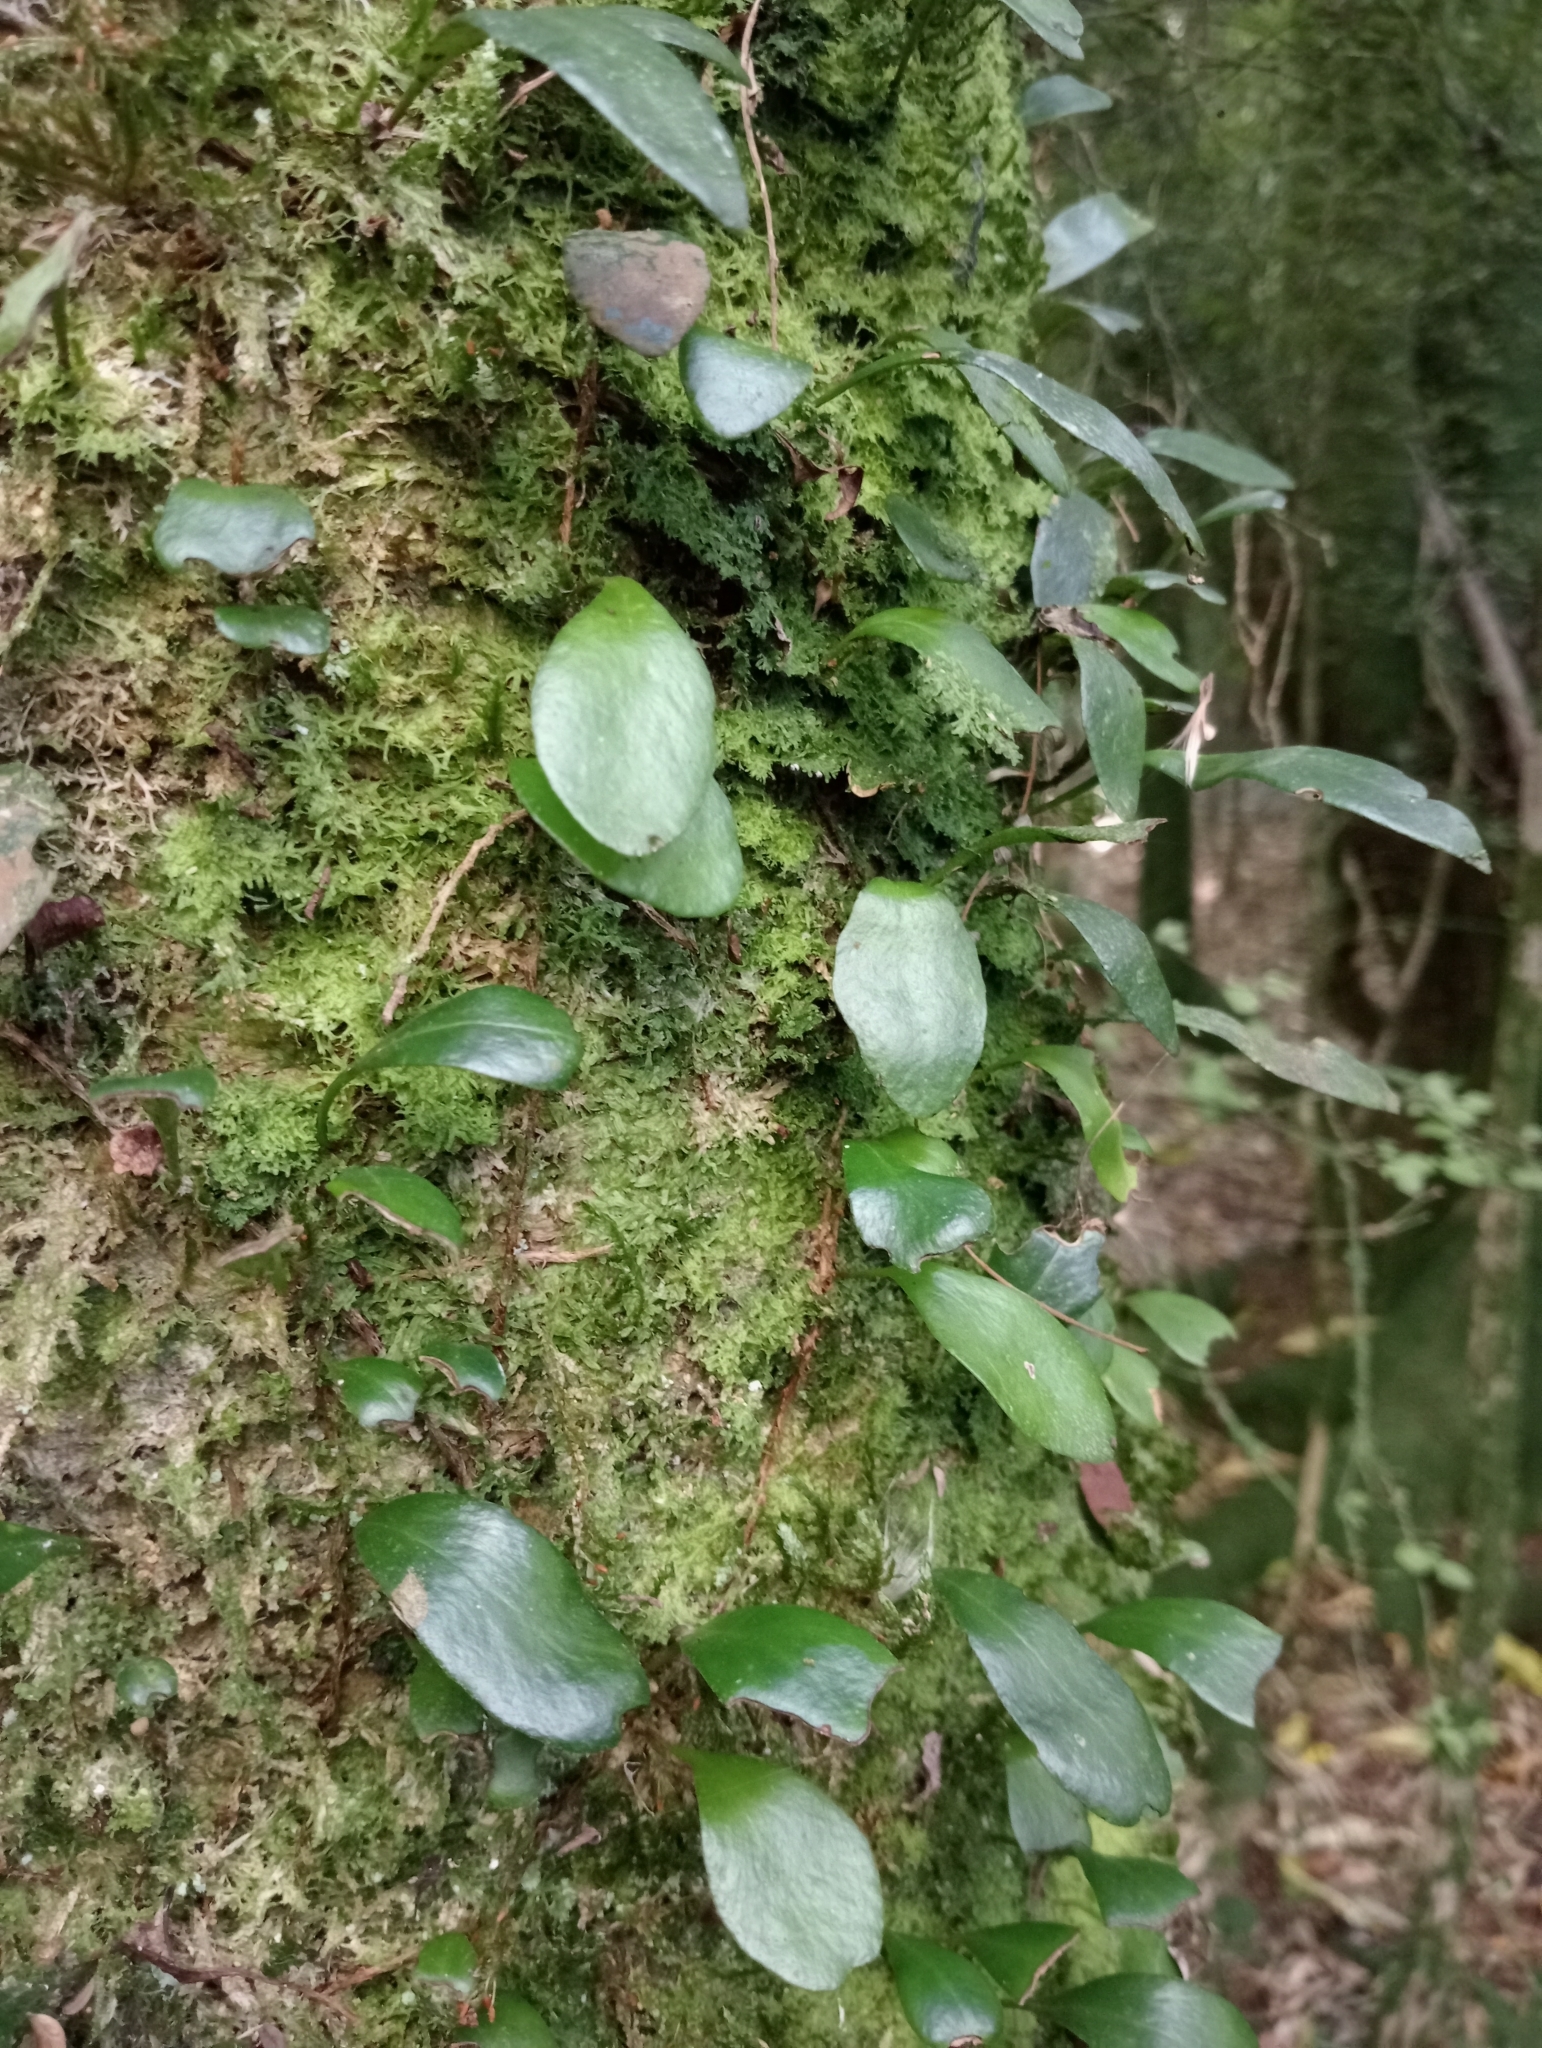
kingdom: Plantae
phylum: Tracheophyta
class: Polypodiopsida
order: Polypodiales
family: Polypodiaceae
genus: Pyrrosia
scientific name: Pyrrosia eleagnifolia
